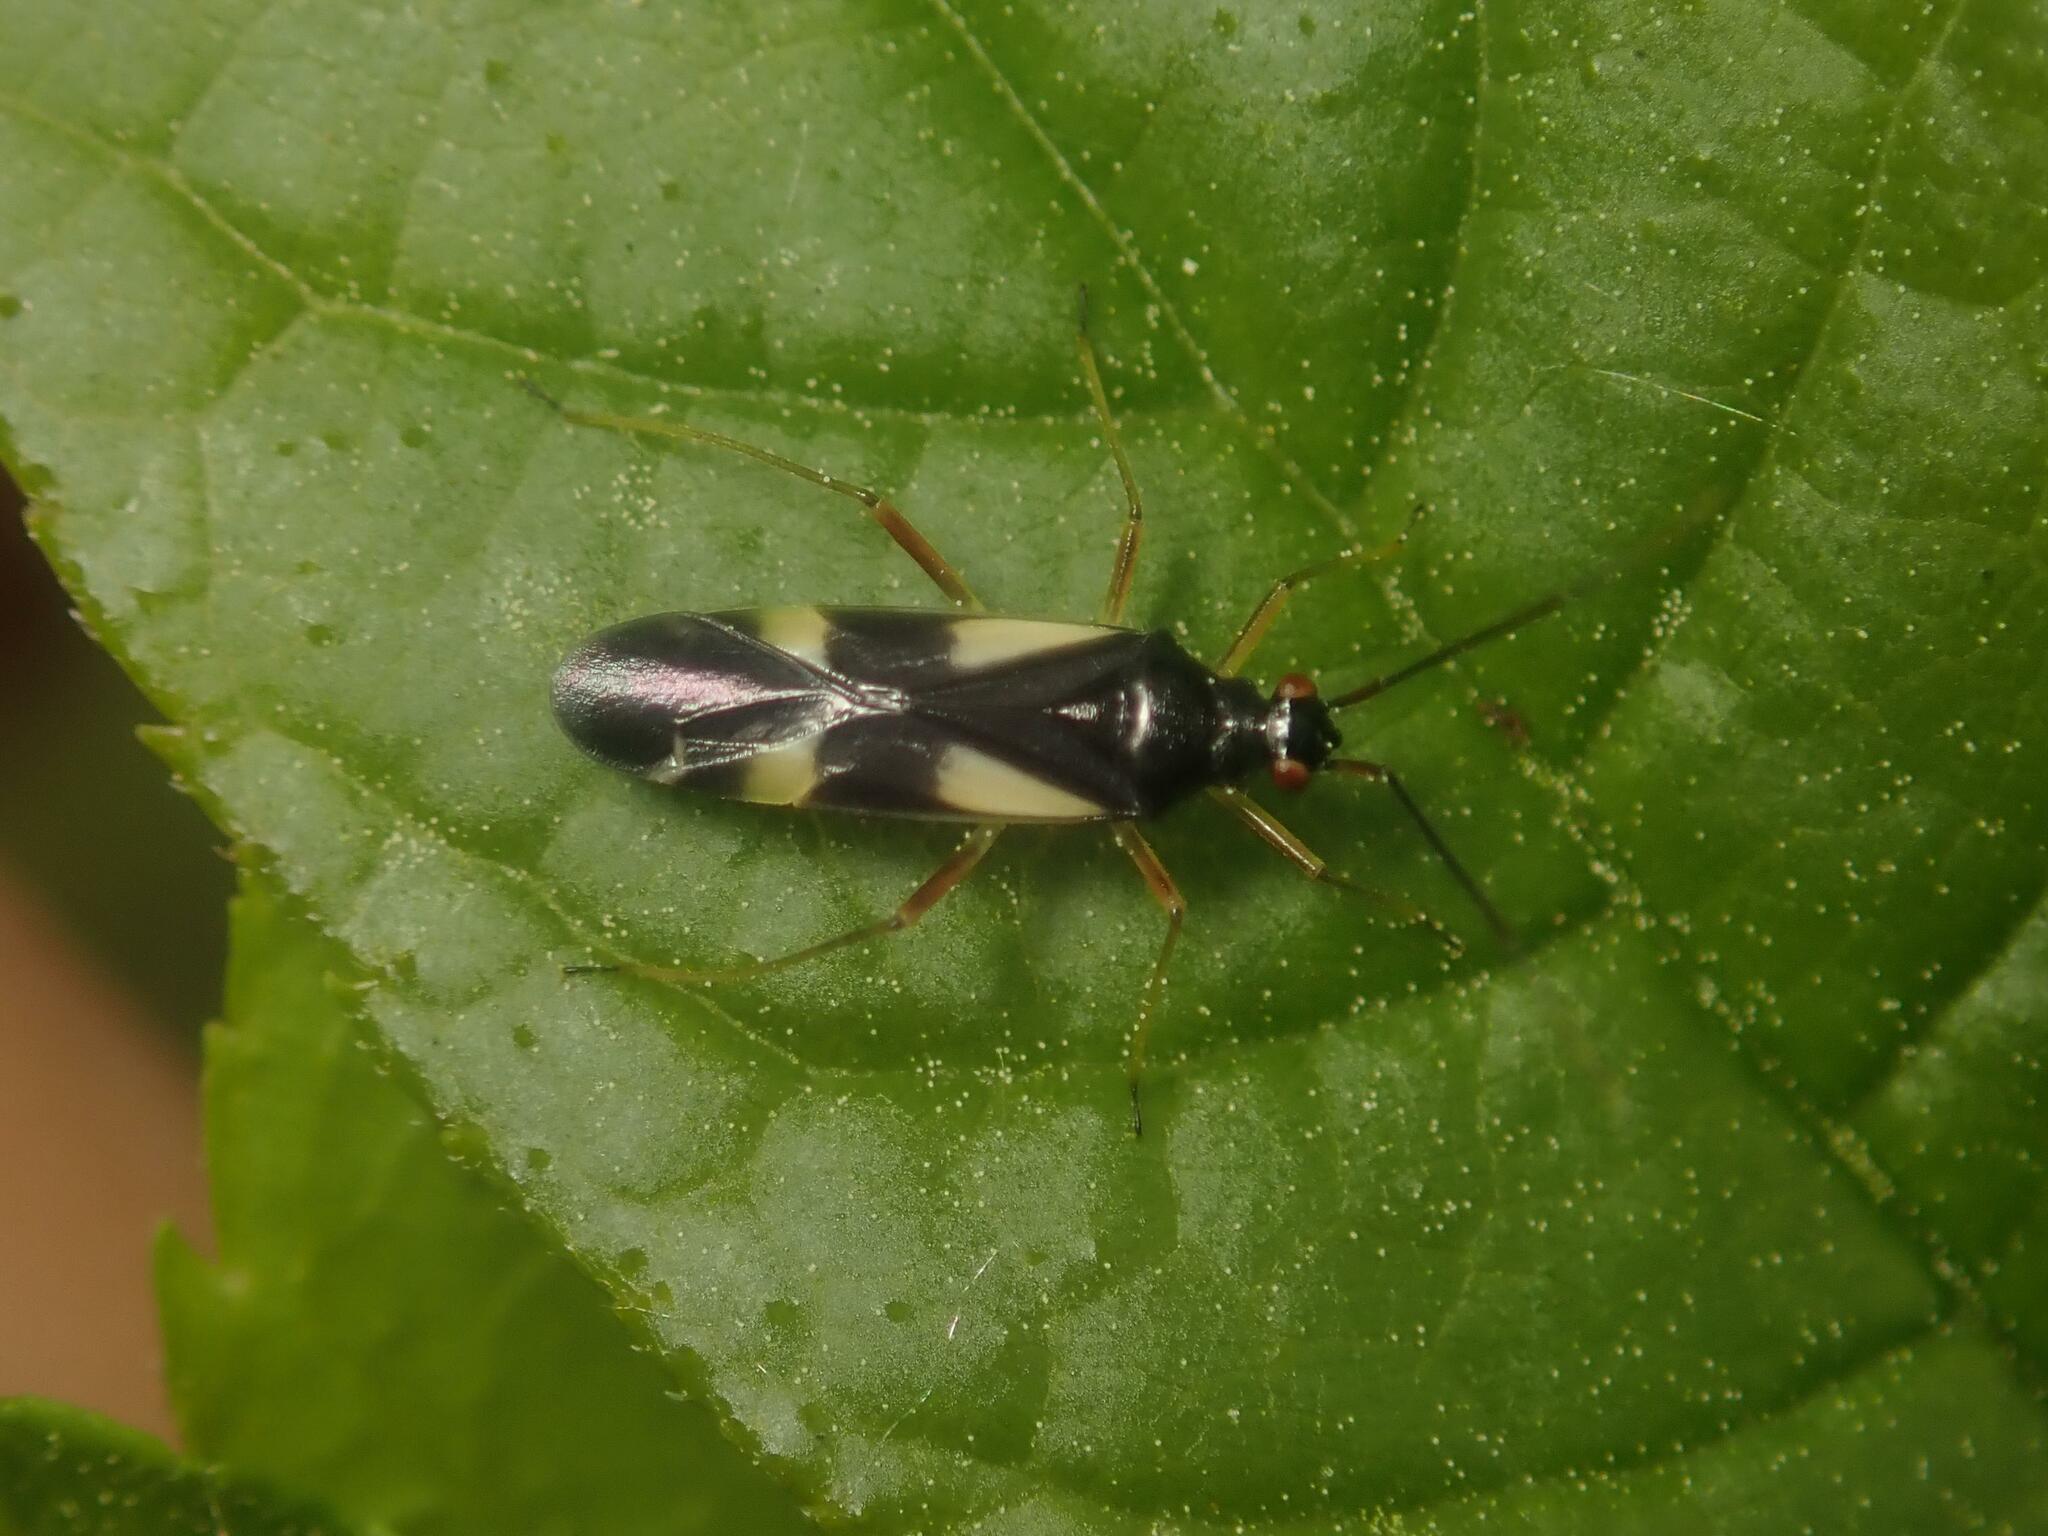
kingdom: Animalia
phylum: Arthropoda
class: Insecta
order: Hemiptera
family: Miridae
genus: Dryophilocoris
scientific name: Dryophilocoris flavoquadrimaculatus
